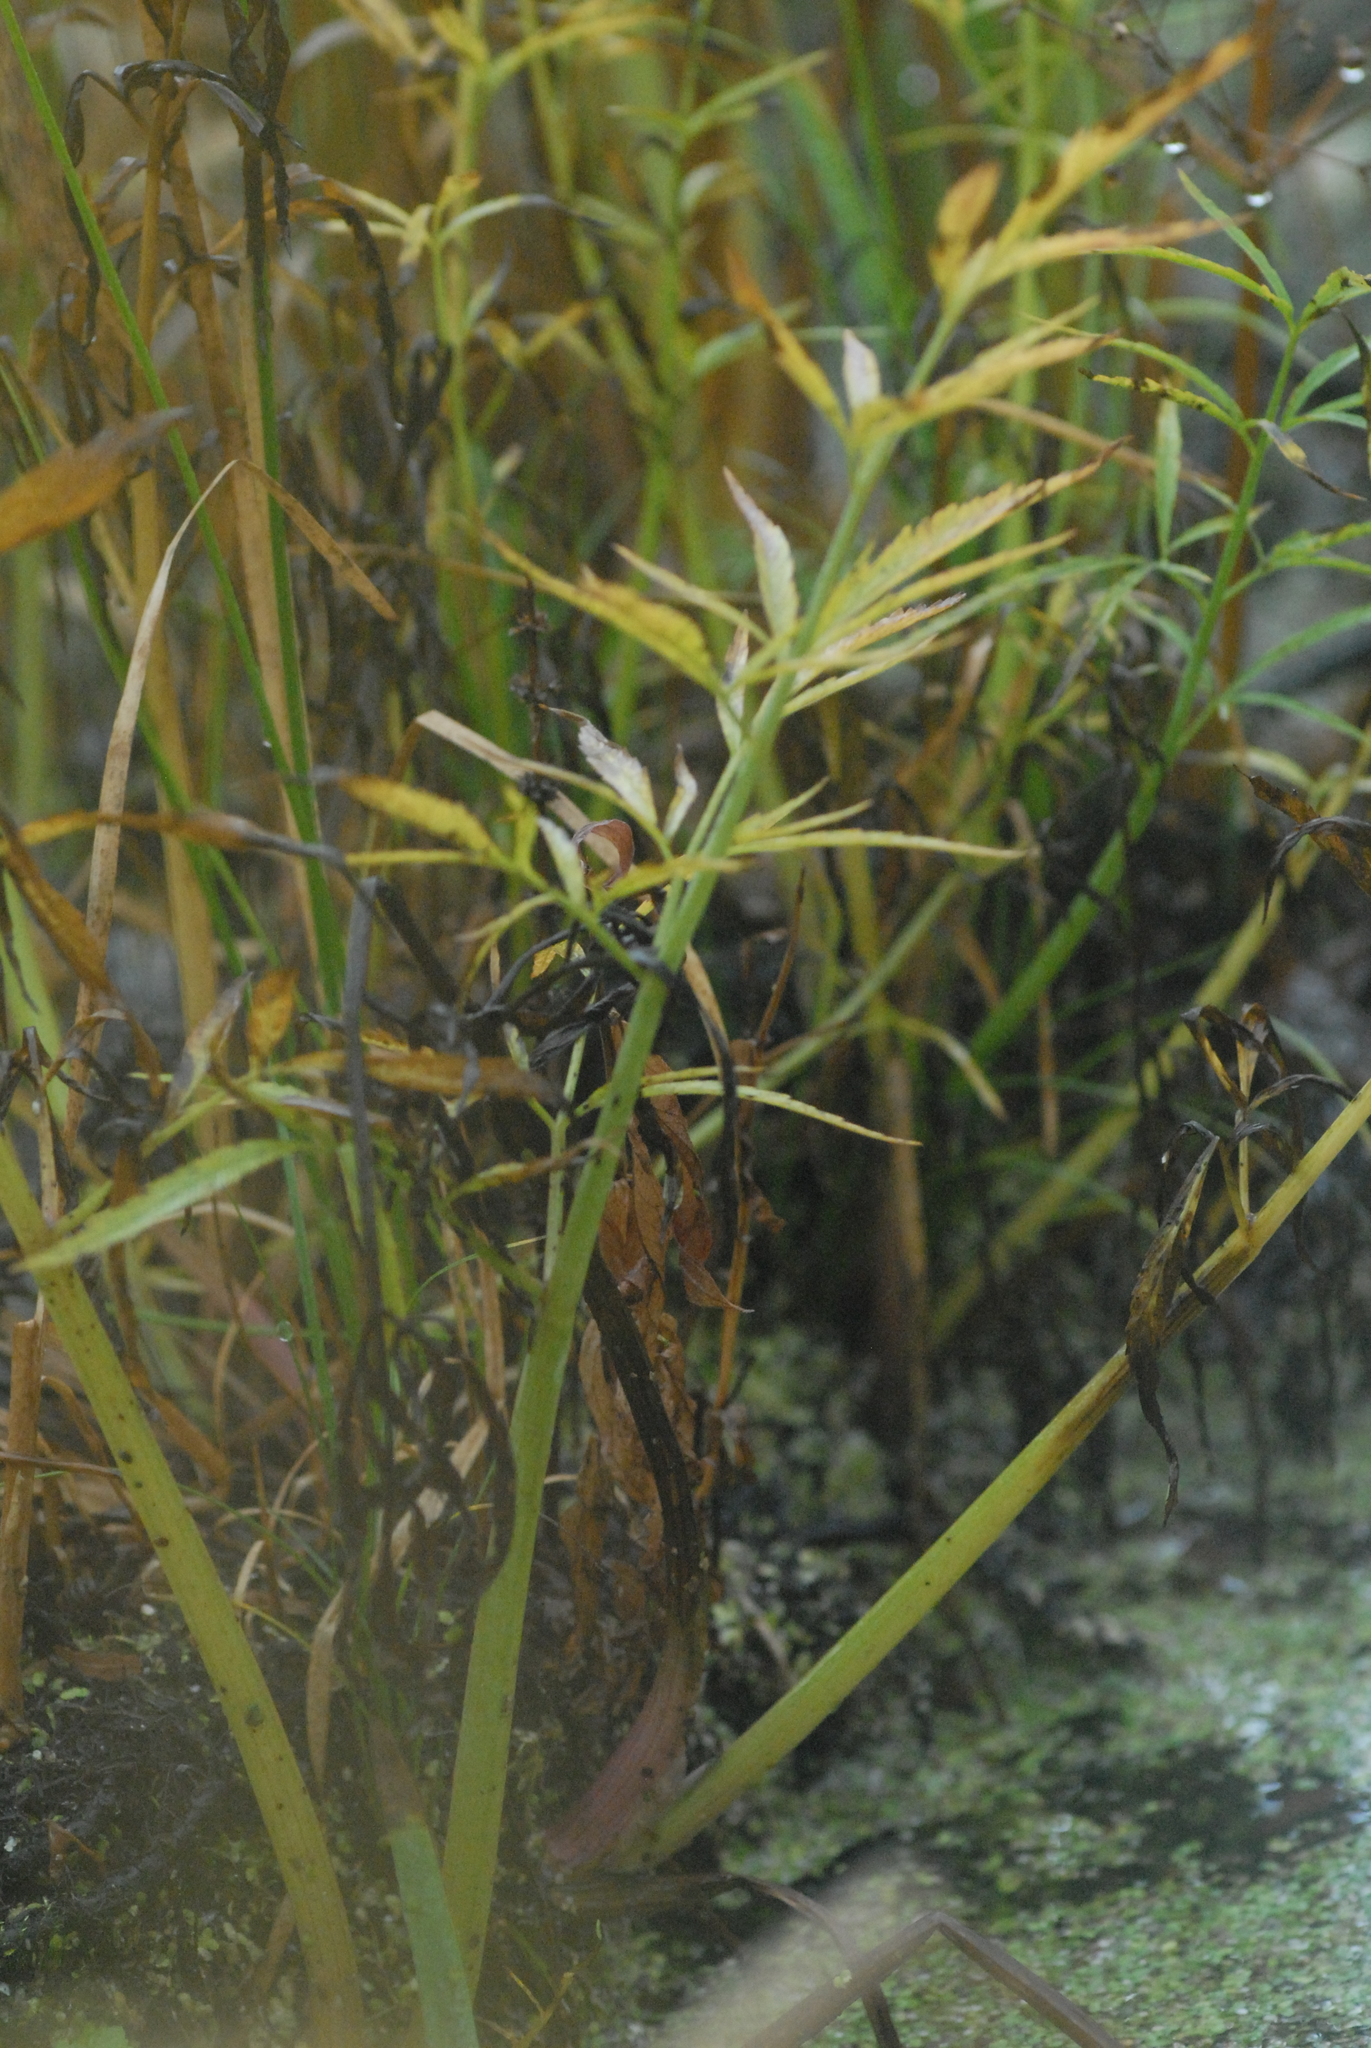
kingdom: Plantae
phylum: Tracheophyta
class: Magnoliopsida
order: Apiales
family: Apiaceae
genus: Cicuta
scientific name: Cicuta virosa
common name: Cowbane
